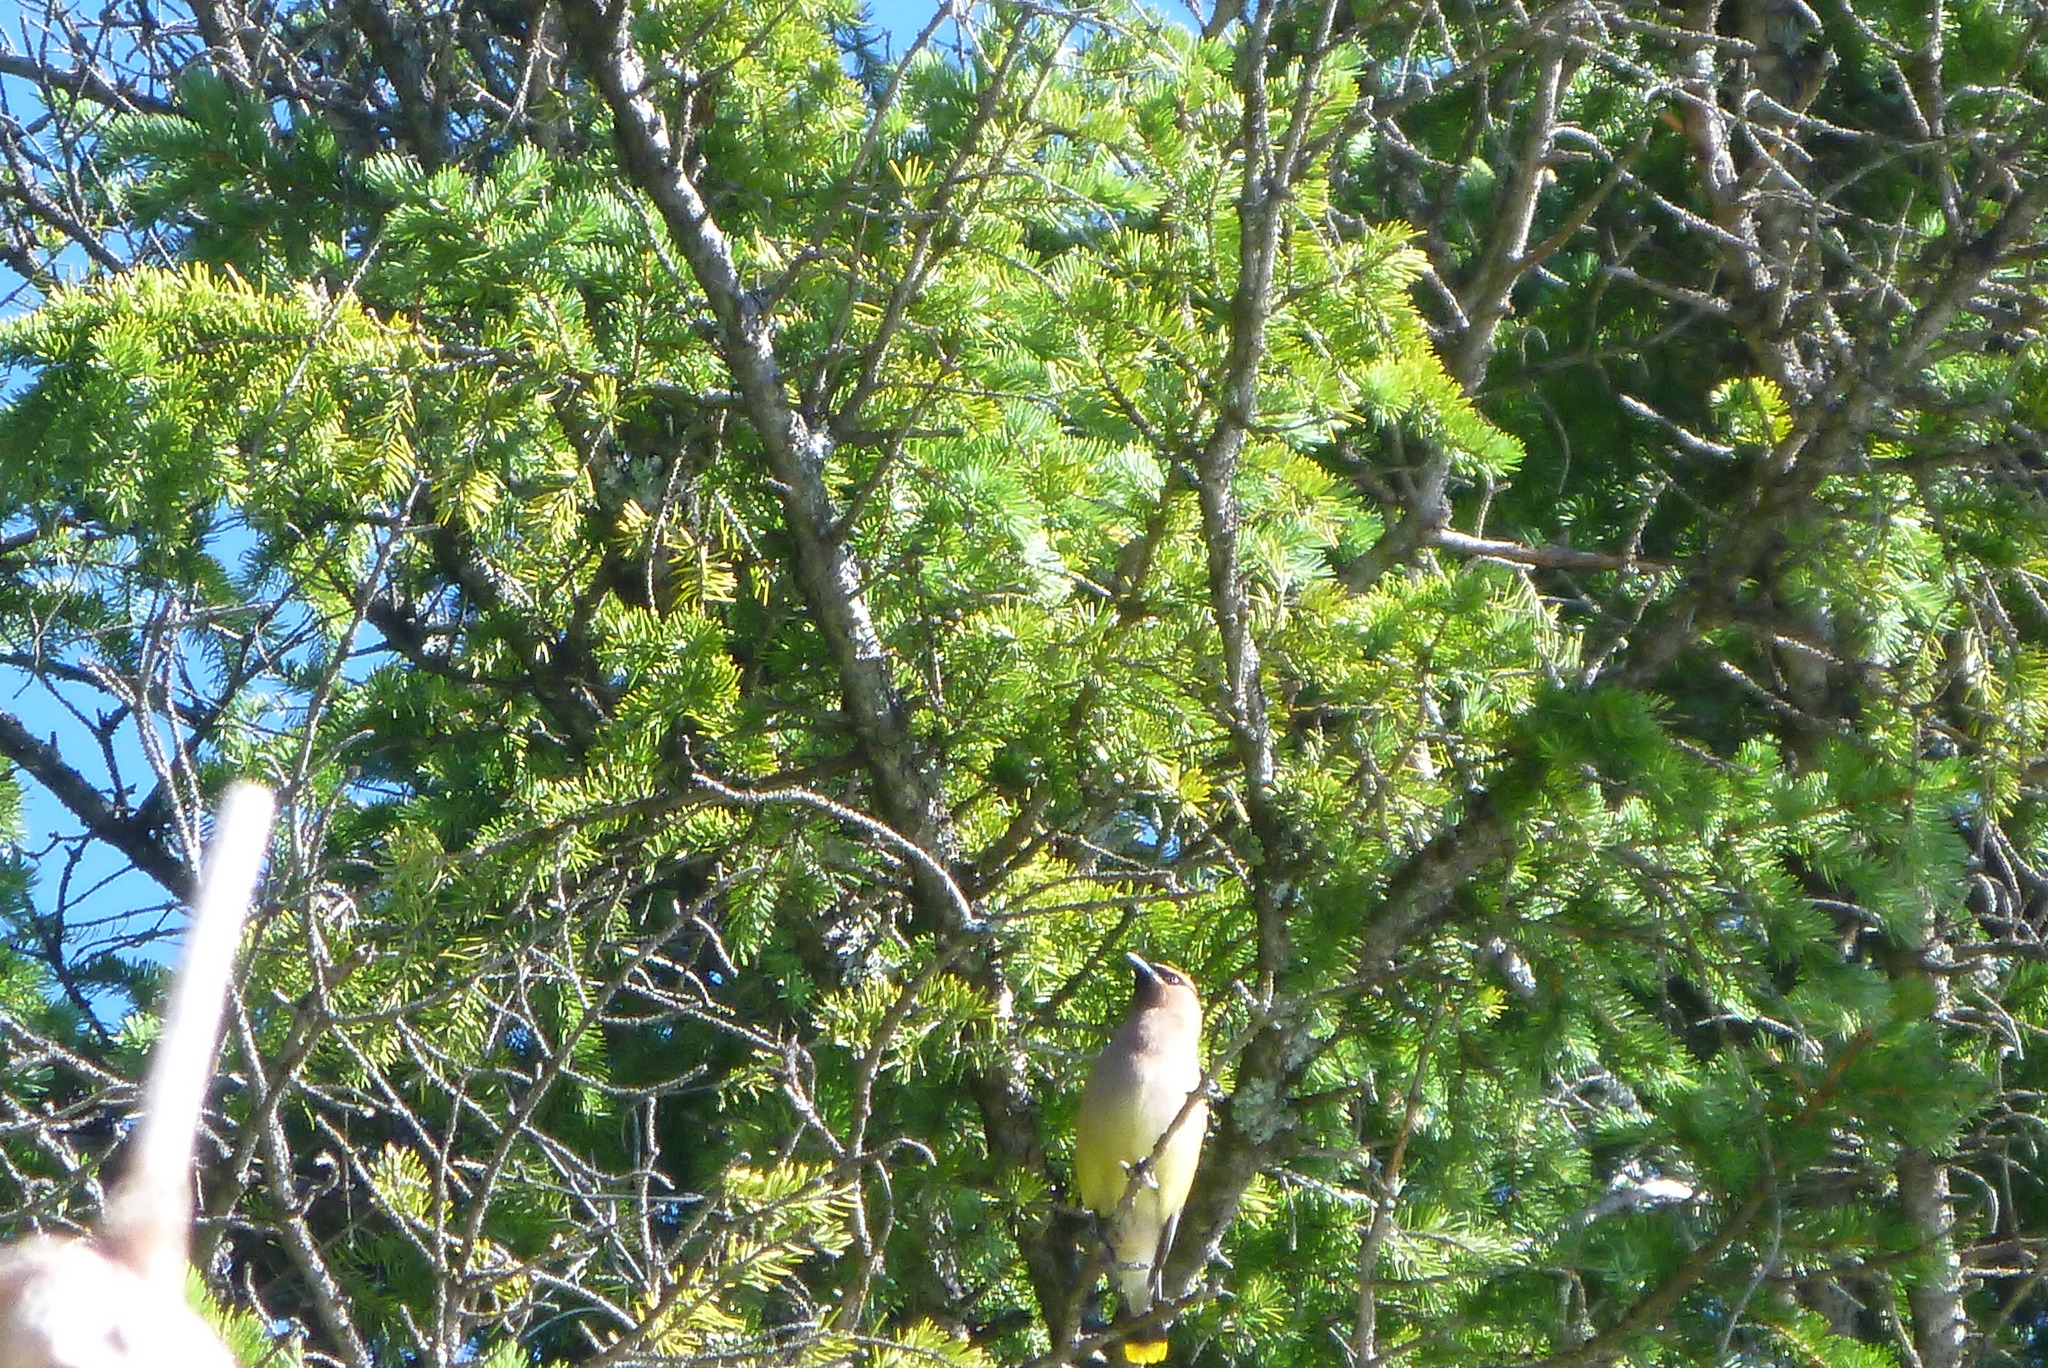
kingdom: Animalia
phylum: Chordata
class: Aves
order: Passeriformes
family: Bombycillidae
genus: Bombycilla
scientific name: Bombycilla cedrorum
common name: Cedar waxwing
